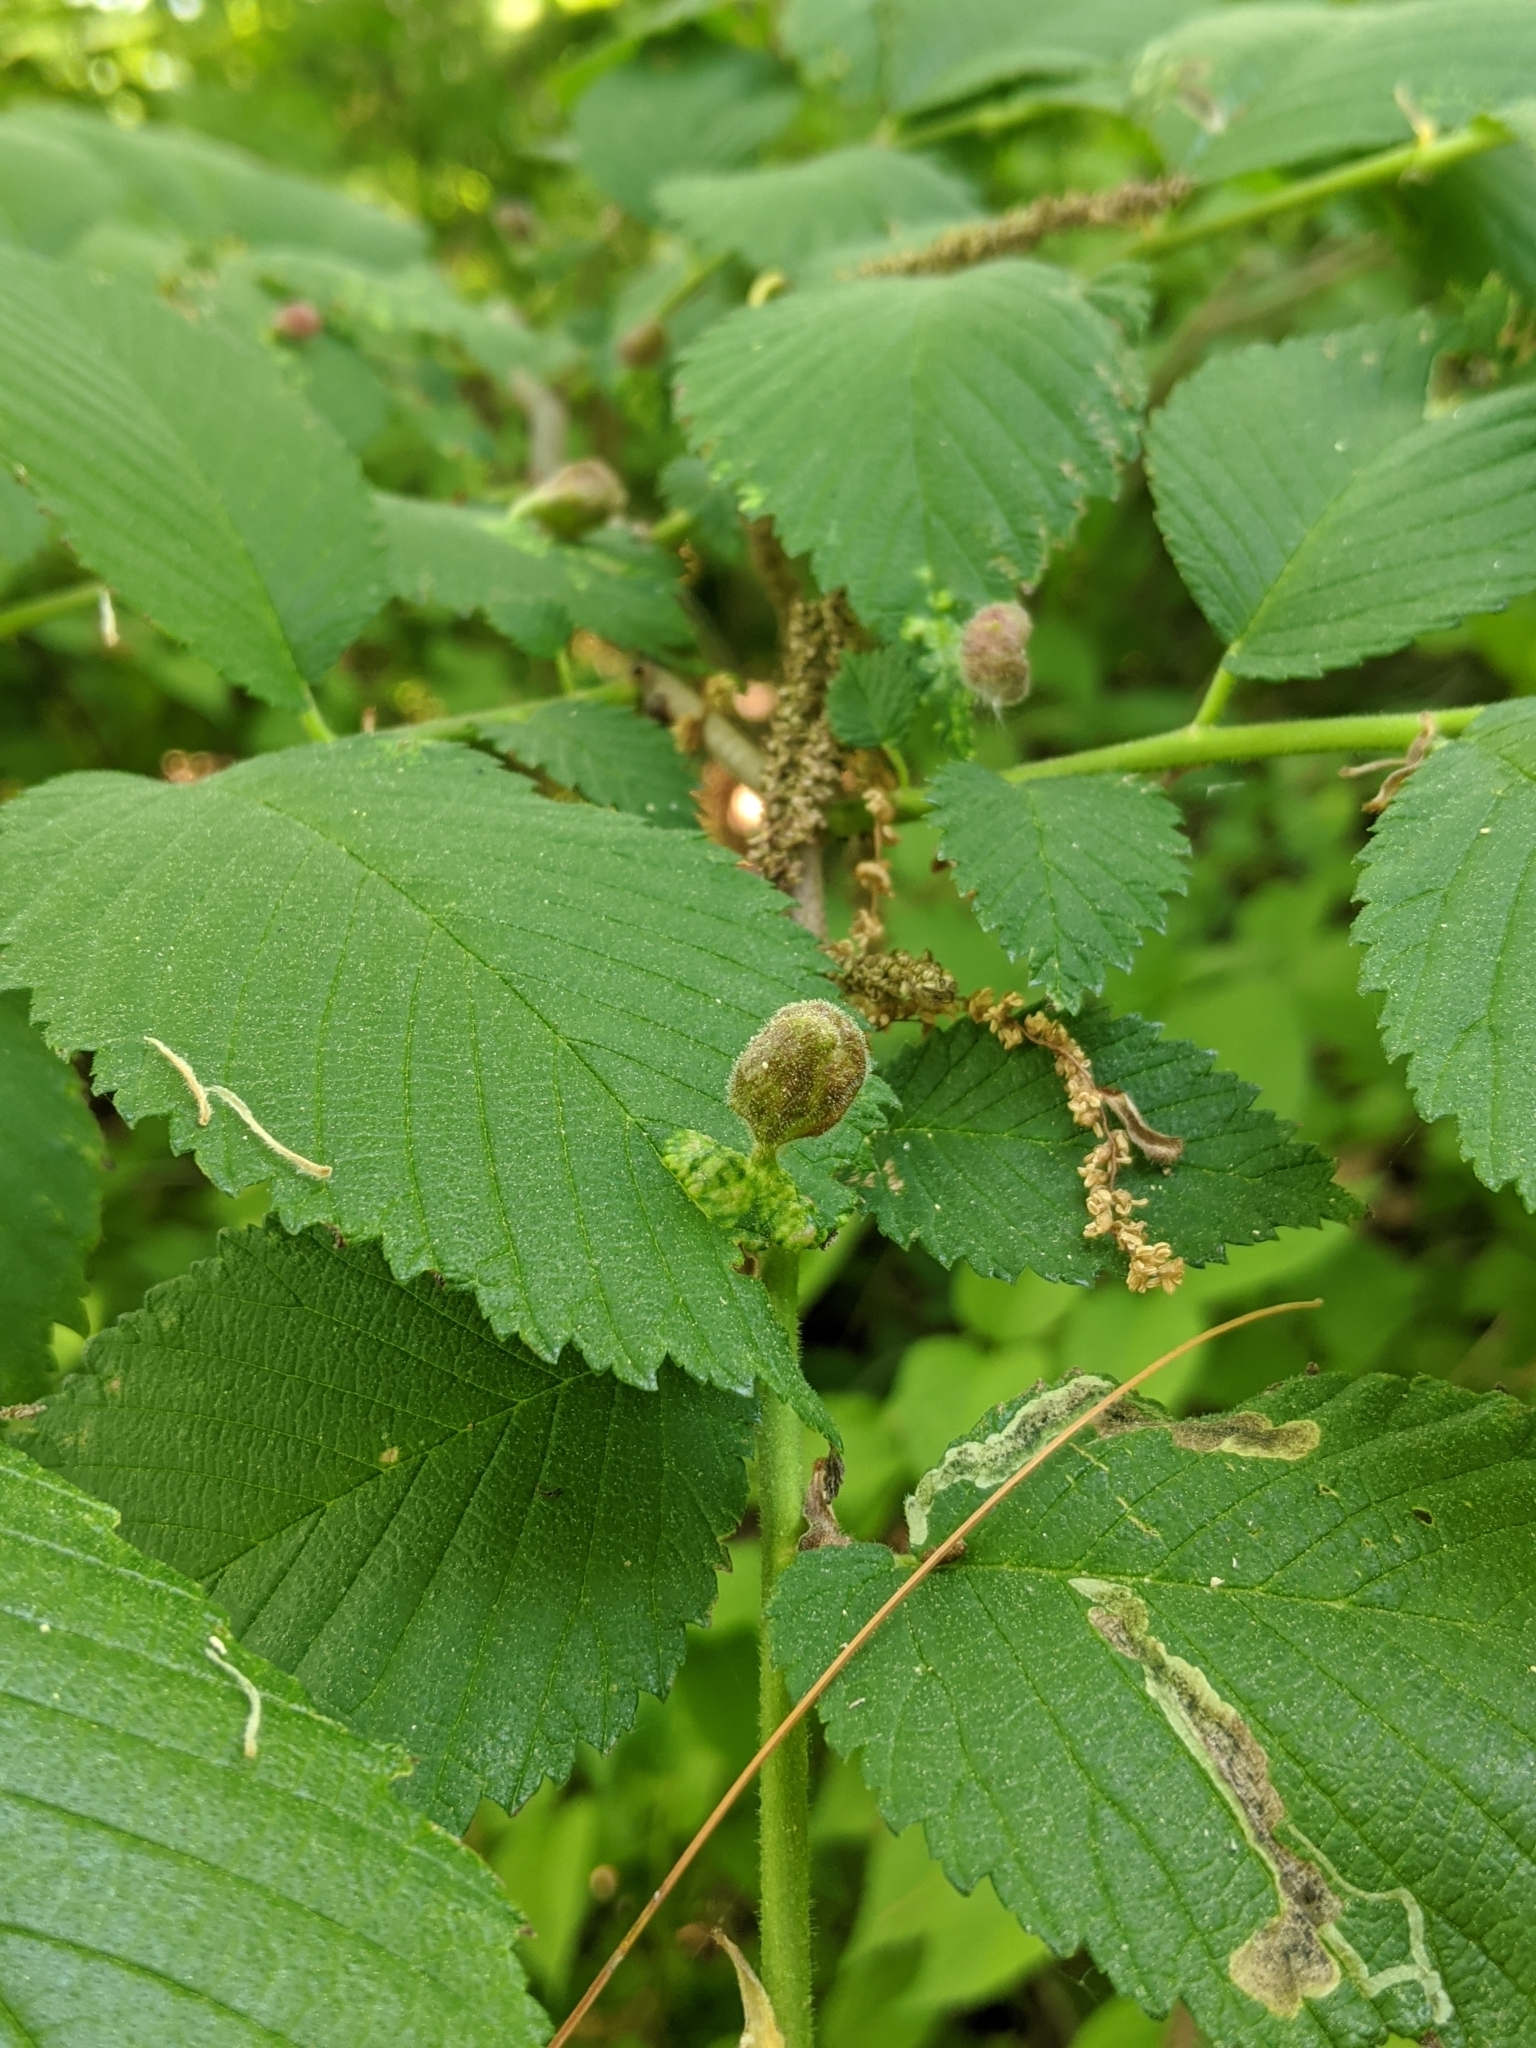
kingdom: Animalia
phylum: Arthropoda
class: Insecta
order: Hemiptera
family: Aphididae
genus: Tetraneura
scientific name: Tetraneura nigriabdominalis
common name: Aphid
